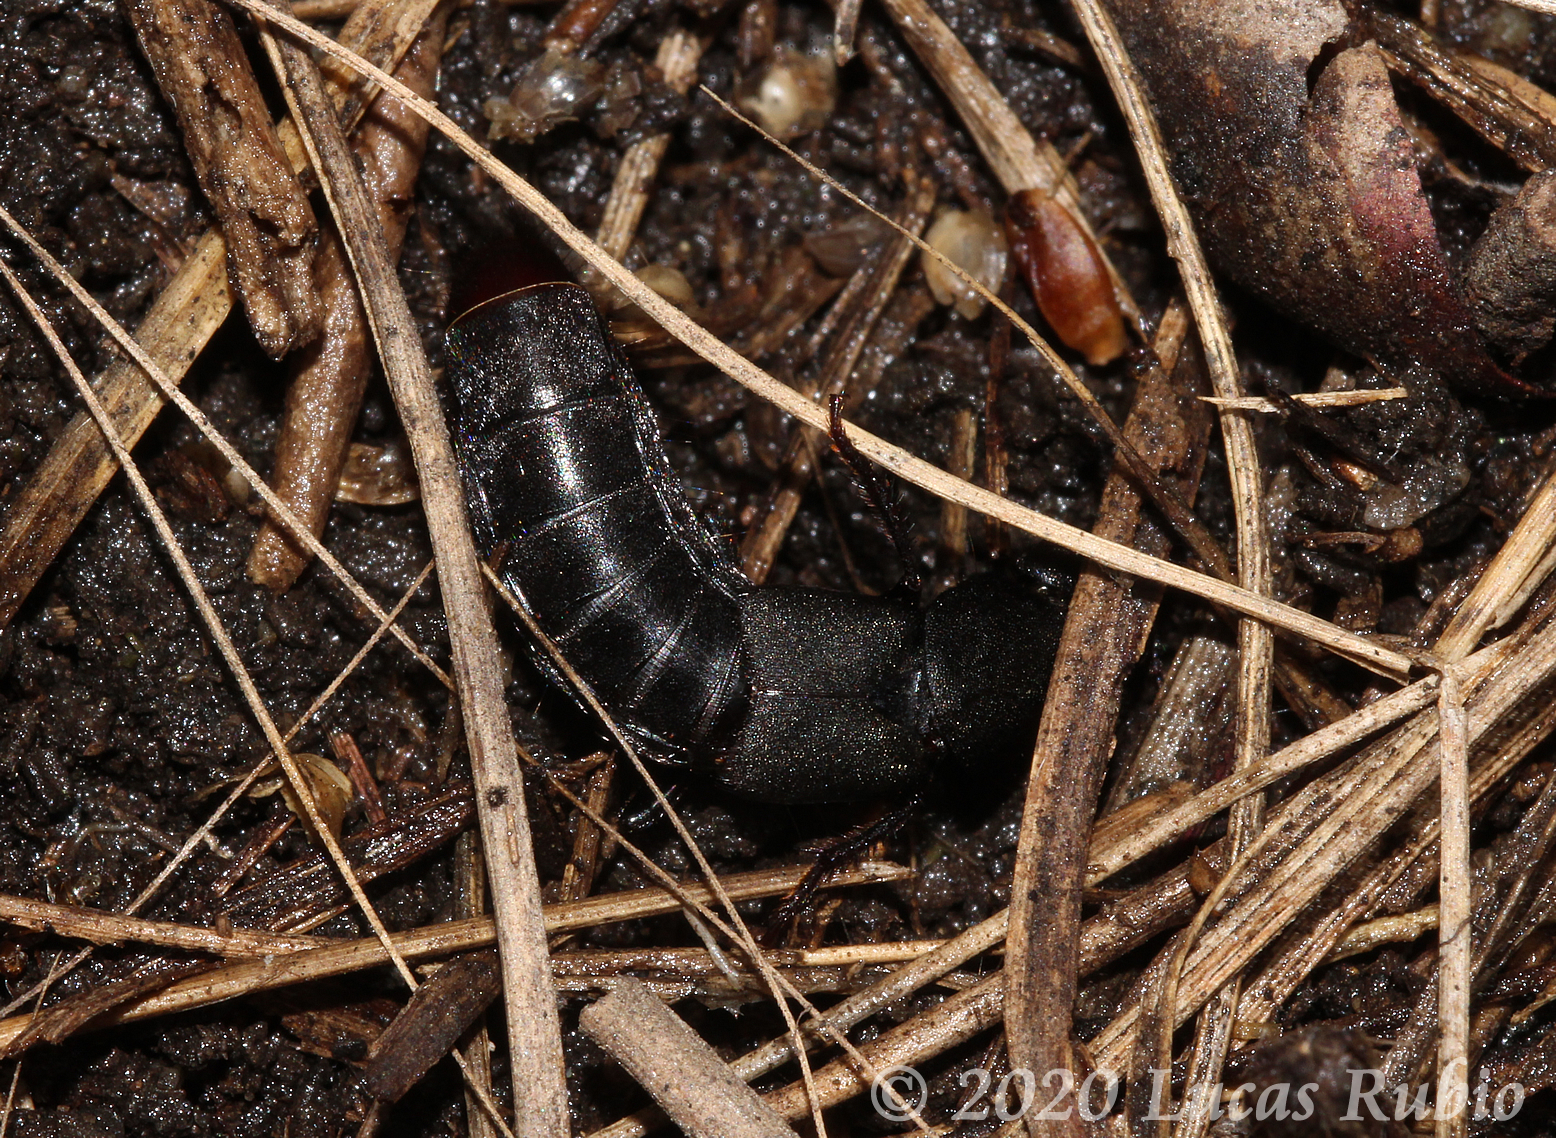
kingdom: Animalia
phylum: Arthropoda
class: Insecta
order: Coleoptera
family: Staphylinidae
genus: Platydracus
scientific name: Platydracus scabrosus
